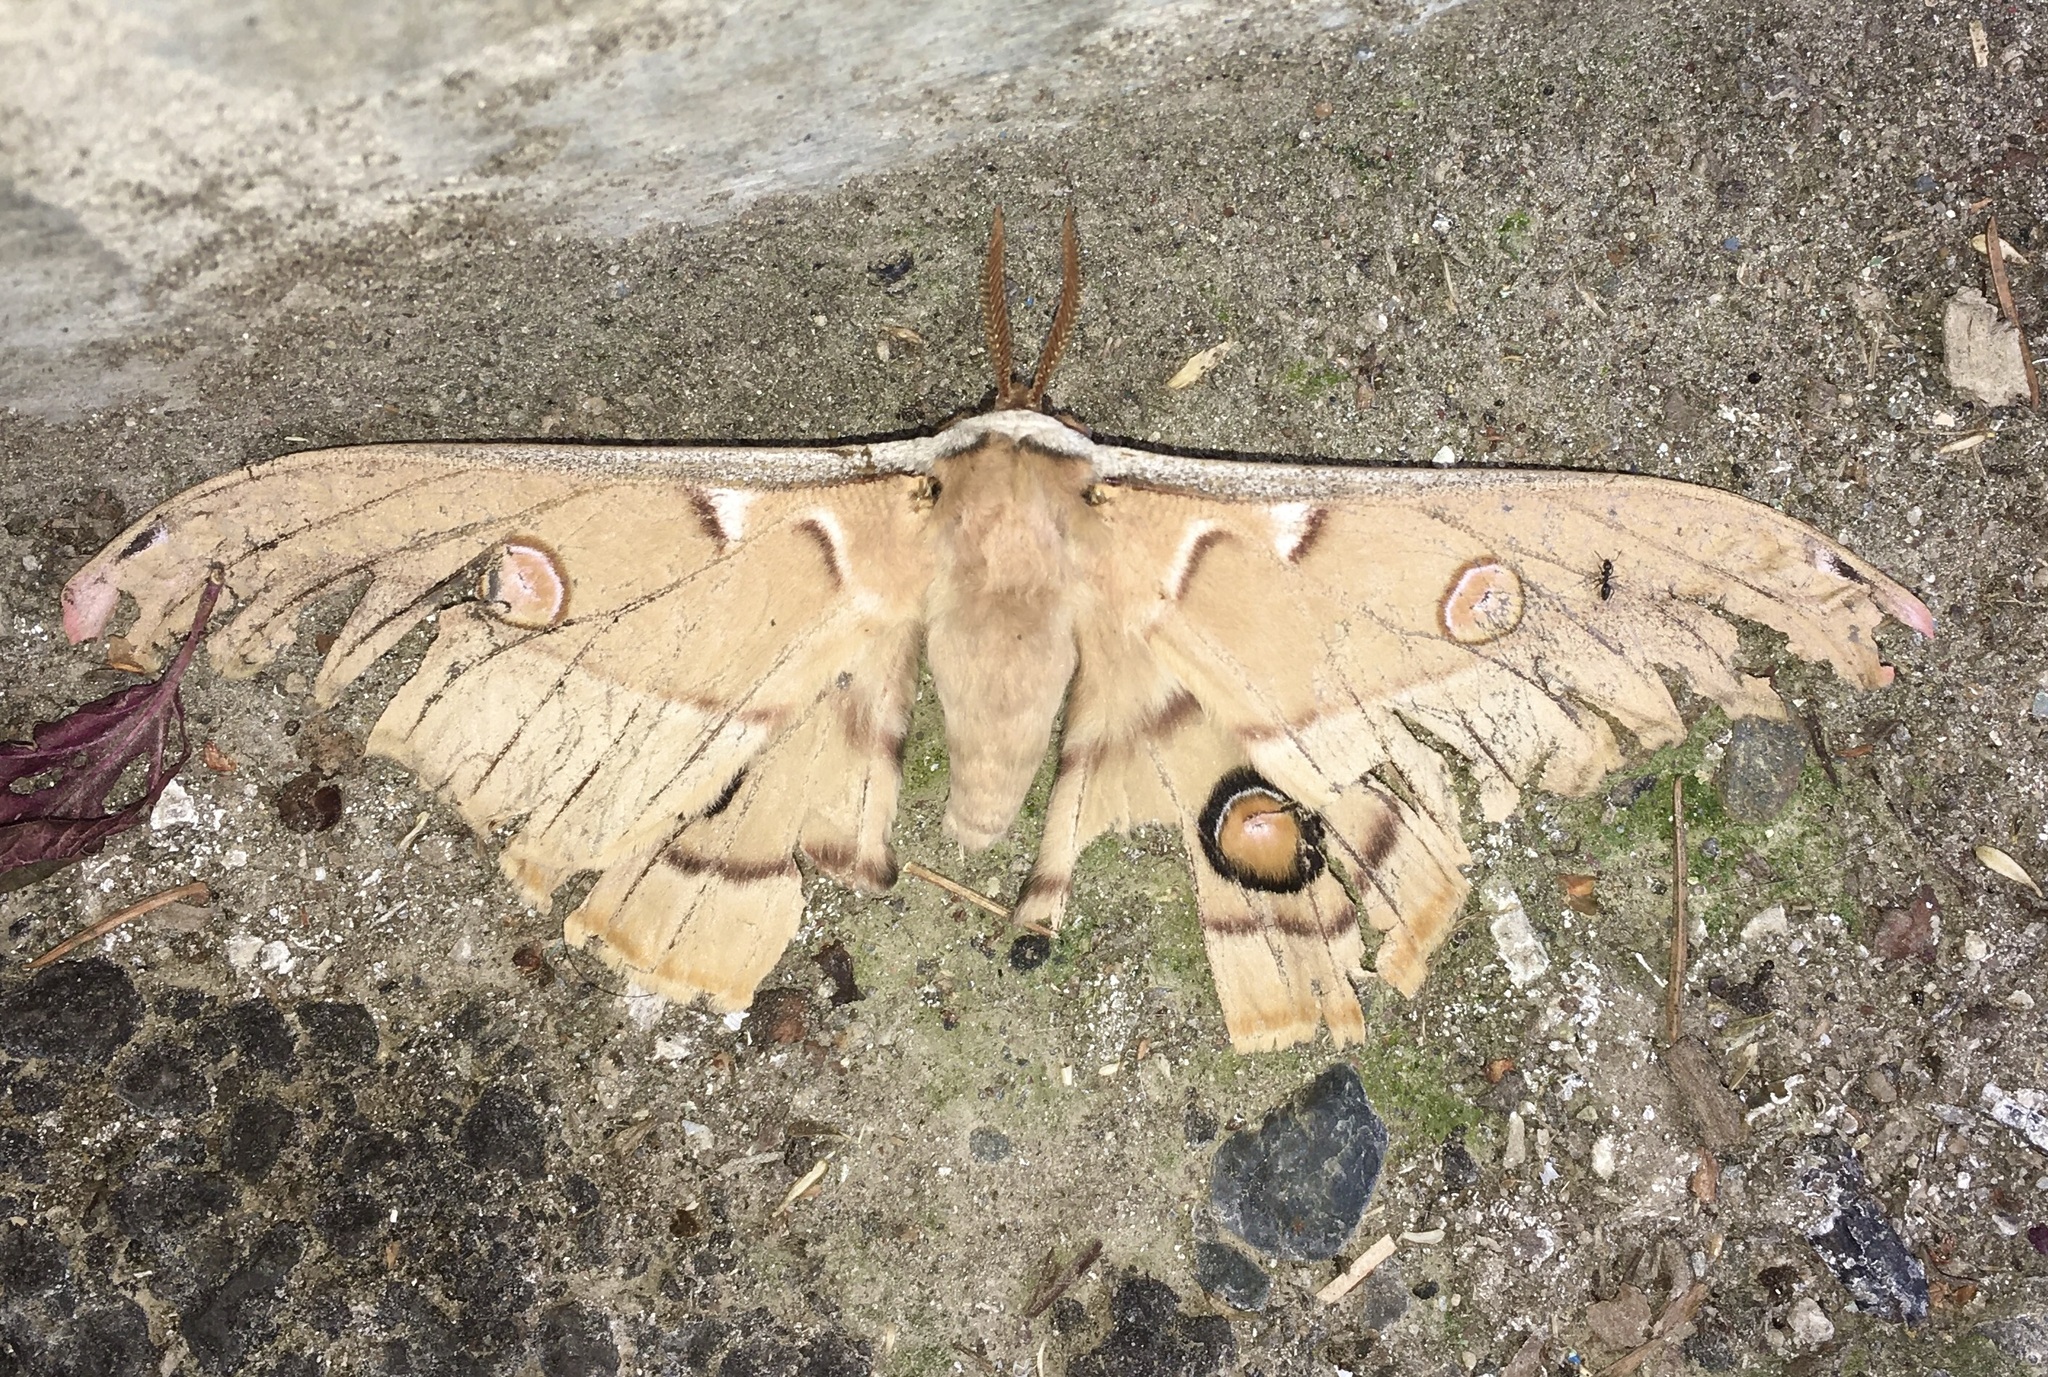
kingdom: Animalia
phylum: Arthropoda
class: Insecta
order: Lepidoptera
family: Saturniidae
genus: Opodiphthera
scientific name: Opodiphthera
